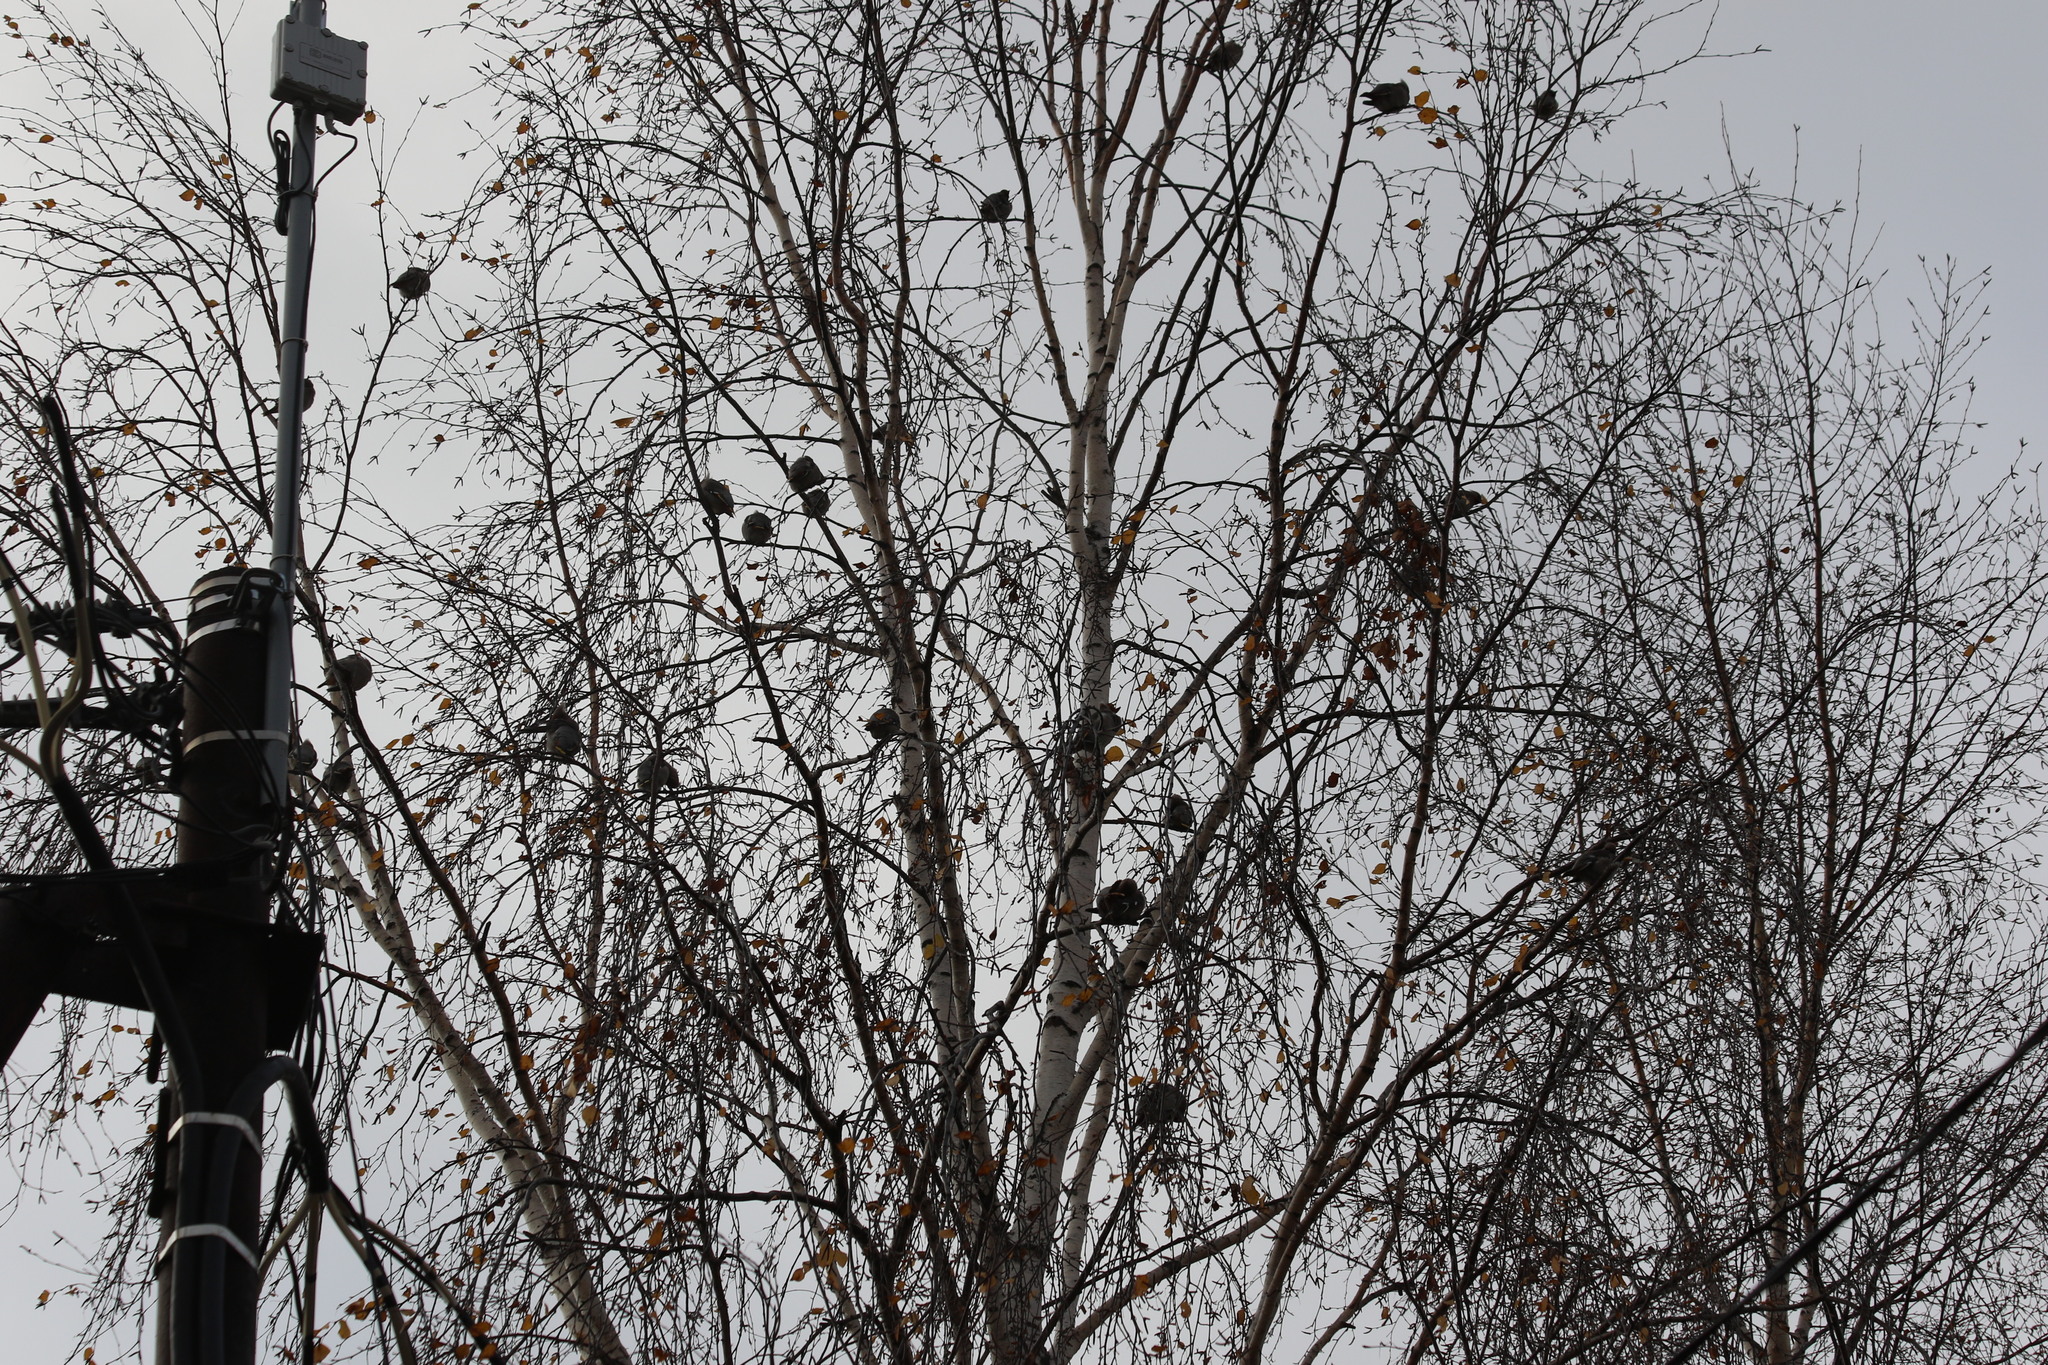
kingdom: Animalia
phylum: Chordata
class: Aves
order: Passeriformes
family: Bombycillidae
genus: Bombycilla
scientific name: Bombycilla garrulus
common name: Bohemian waxwing
